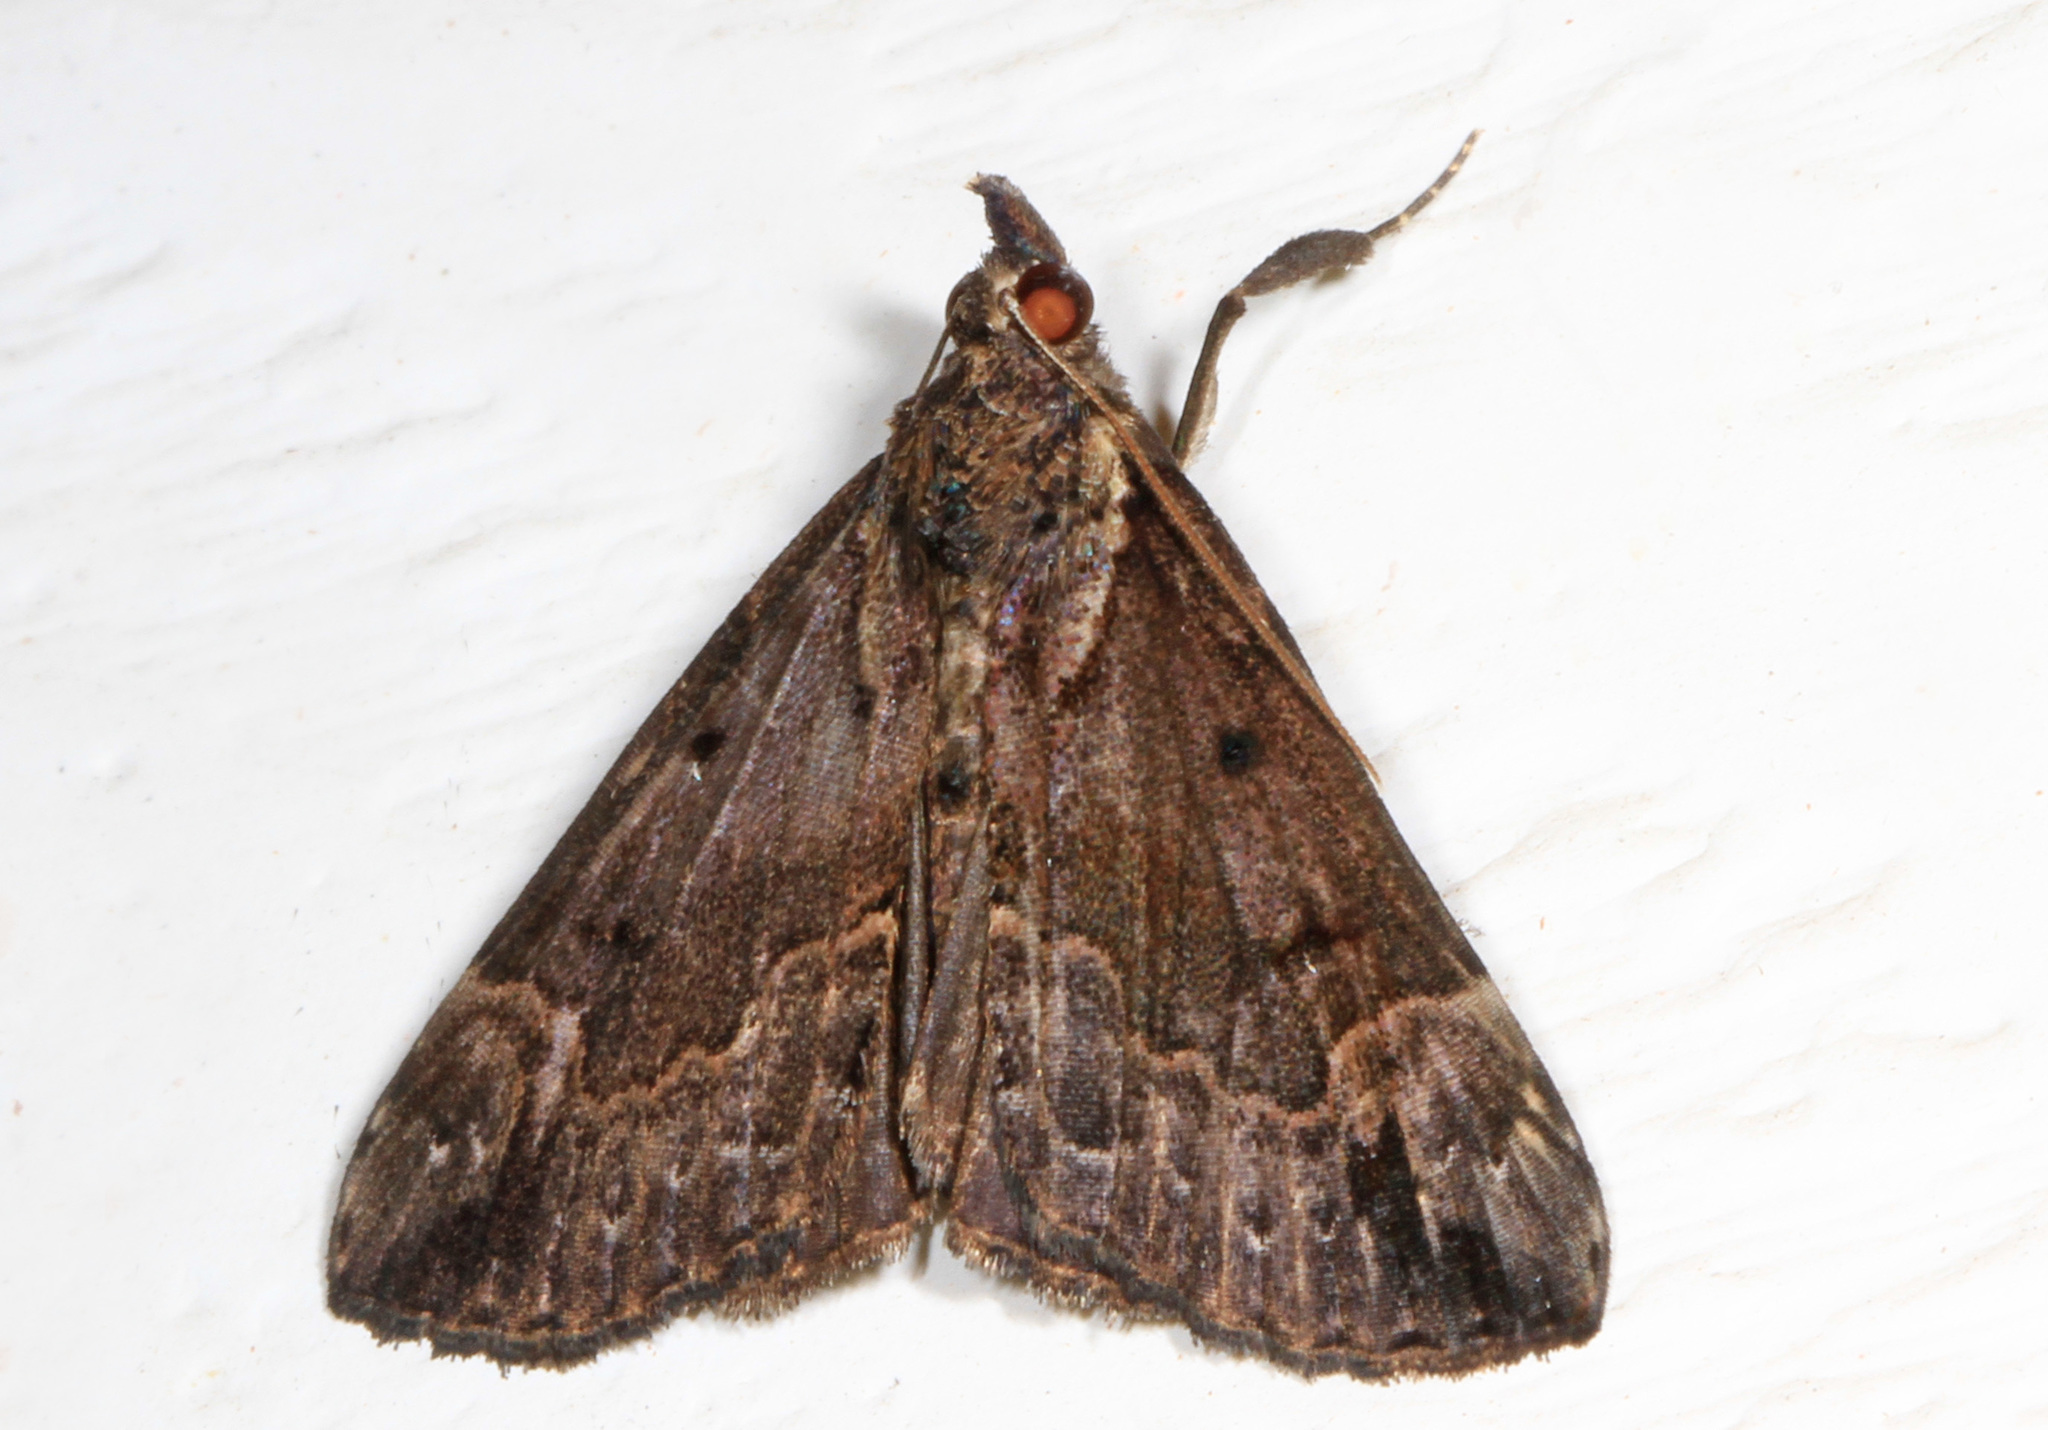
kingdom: Animalia
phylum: Arthropoda
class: Insecta
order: Lepidoptera
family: Erebidae
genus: Hypena
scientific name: Hypena baltimoralis
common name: Baltimore snout
